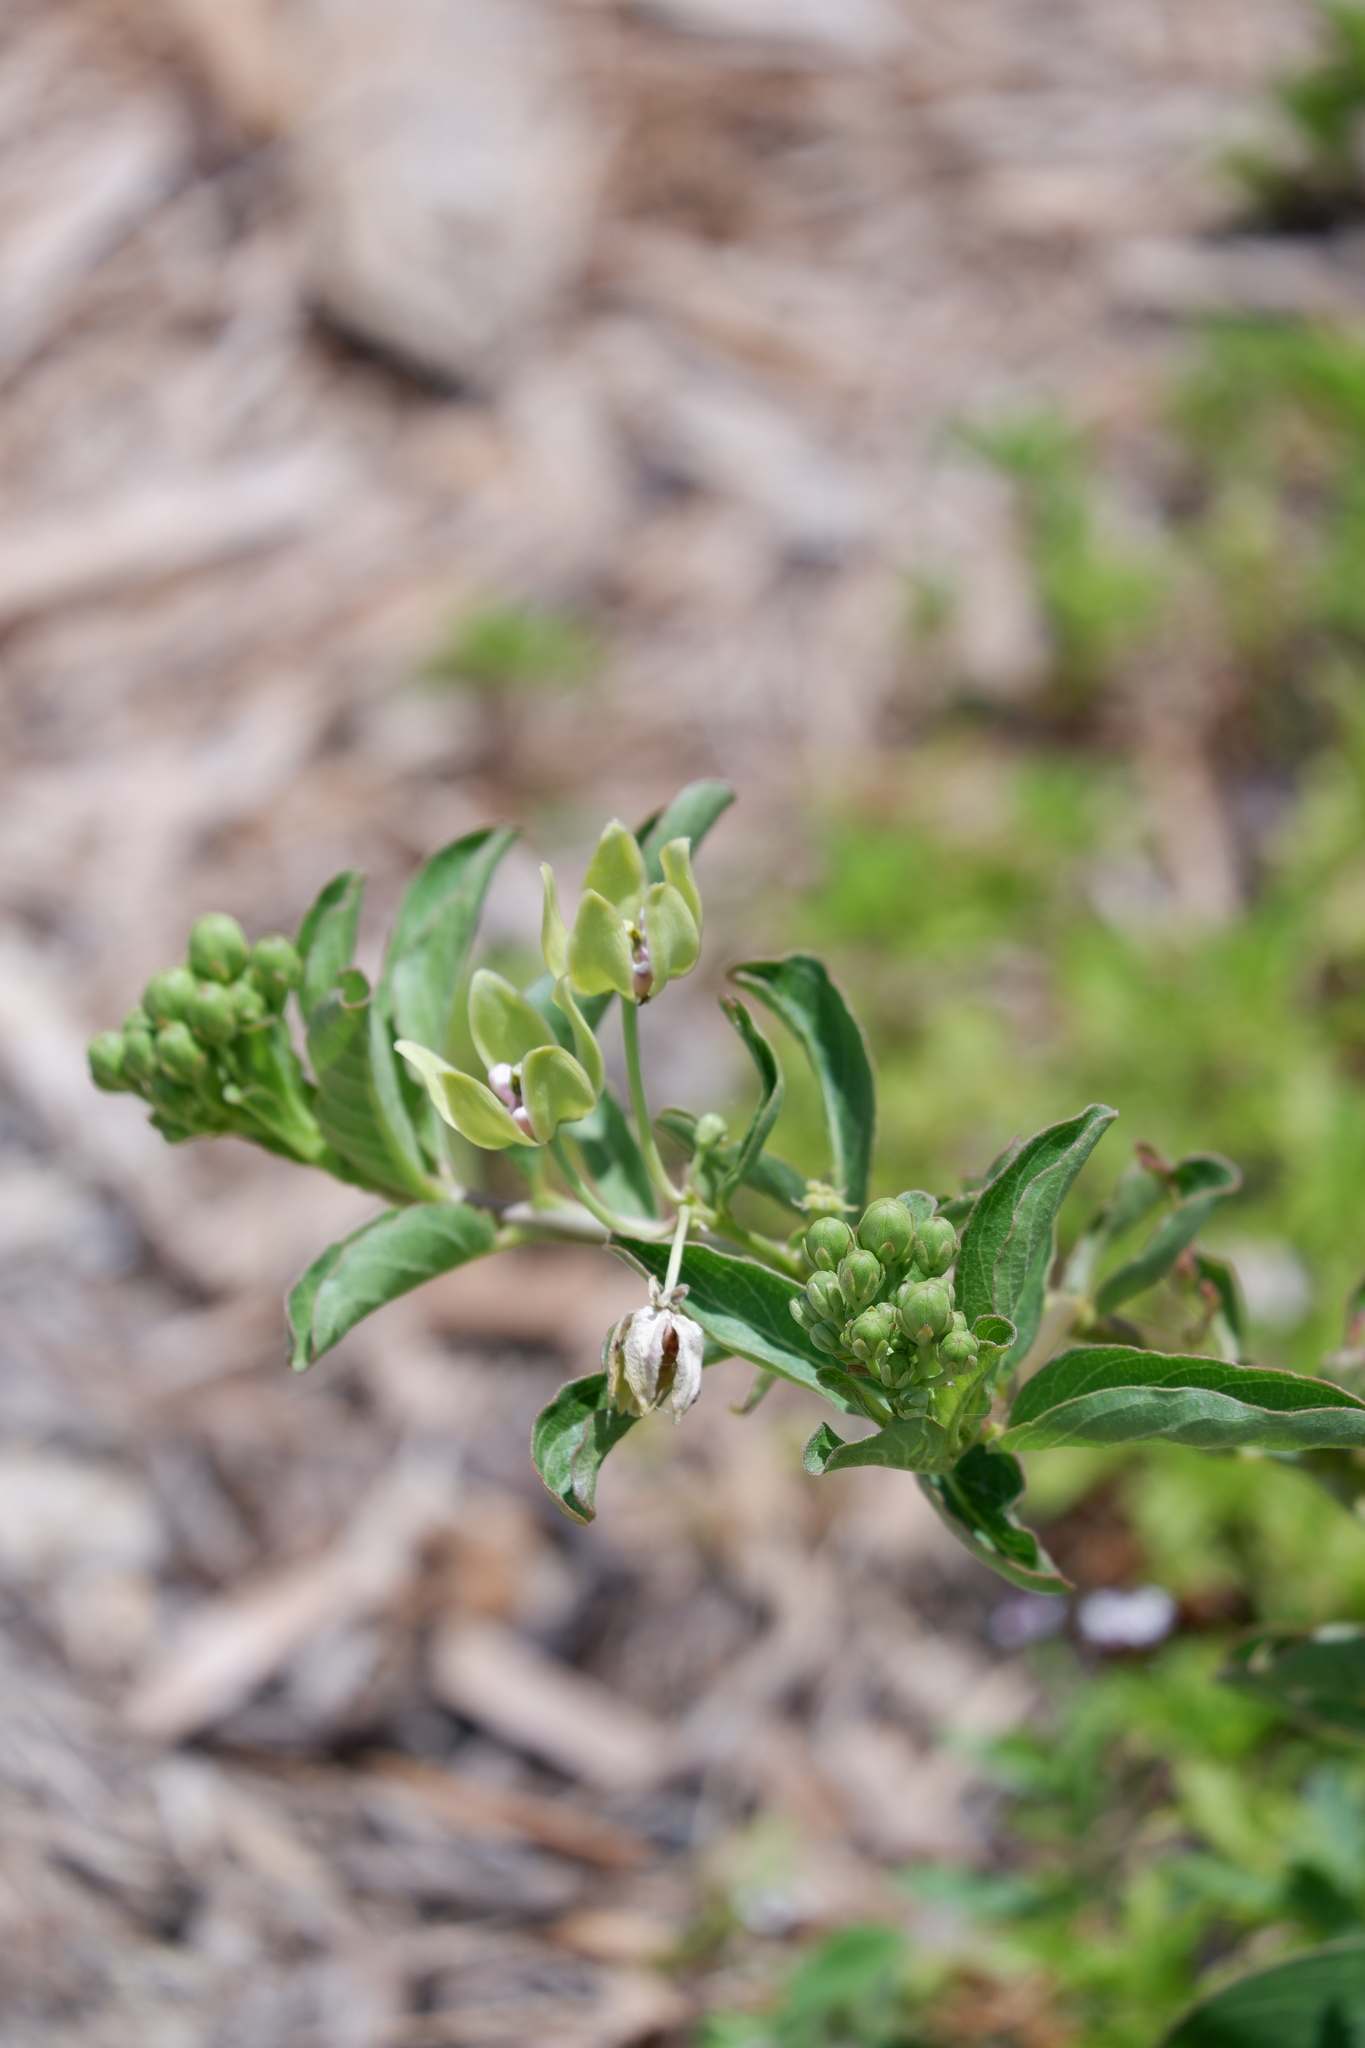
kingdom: Plantae
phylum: Tracheophyta
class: Magnoliopsida
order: Gentianales
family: Apocynaceae
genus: Asclepias
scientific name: Asclepias viridis
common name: Antelope-horns
